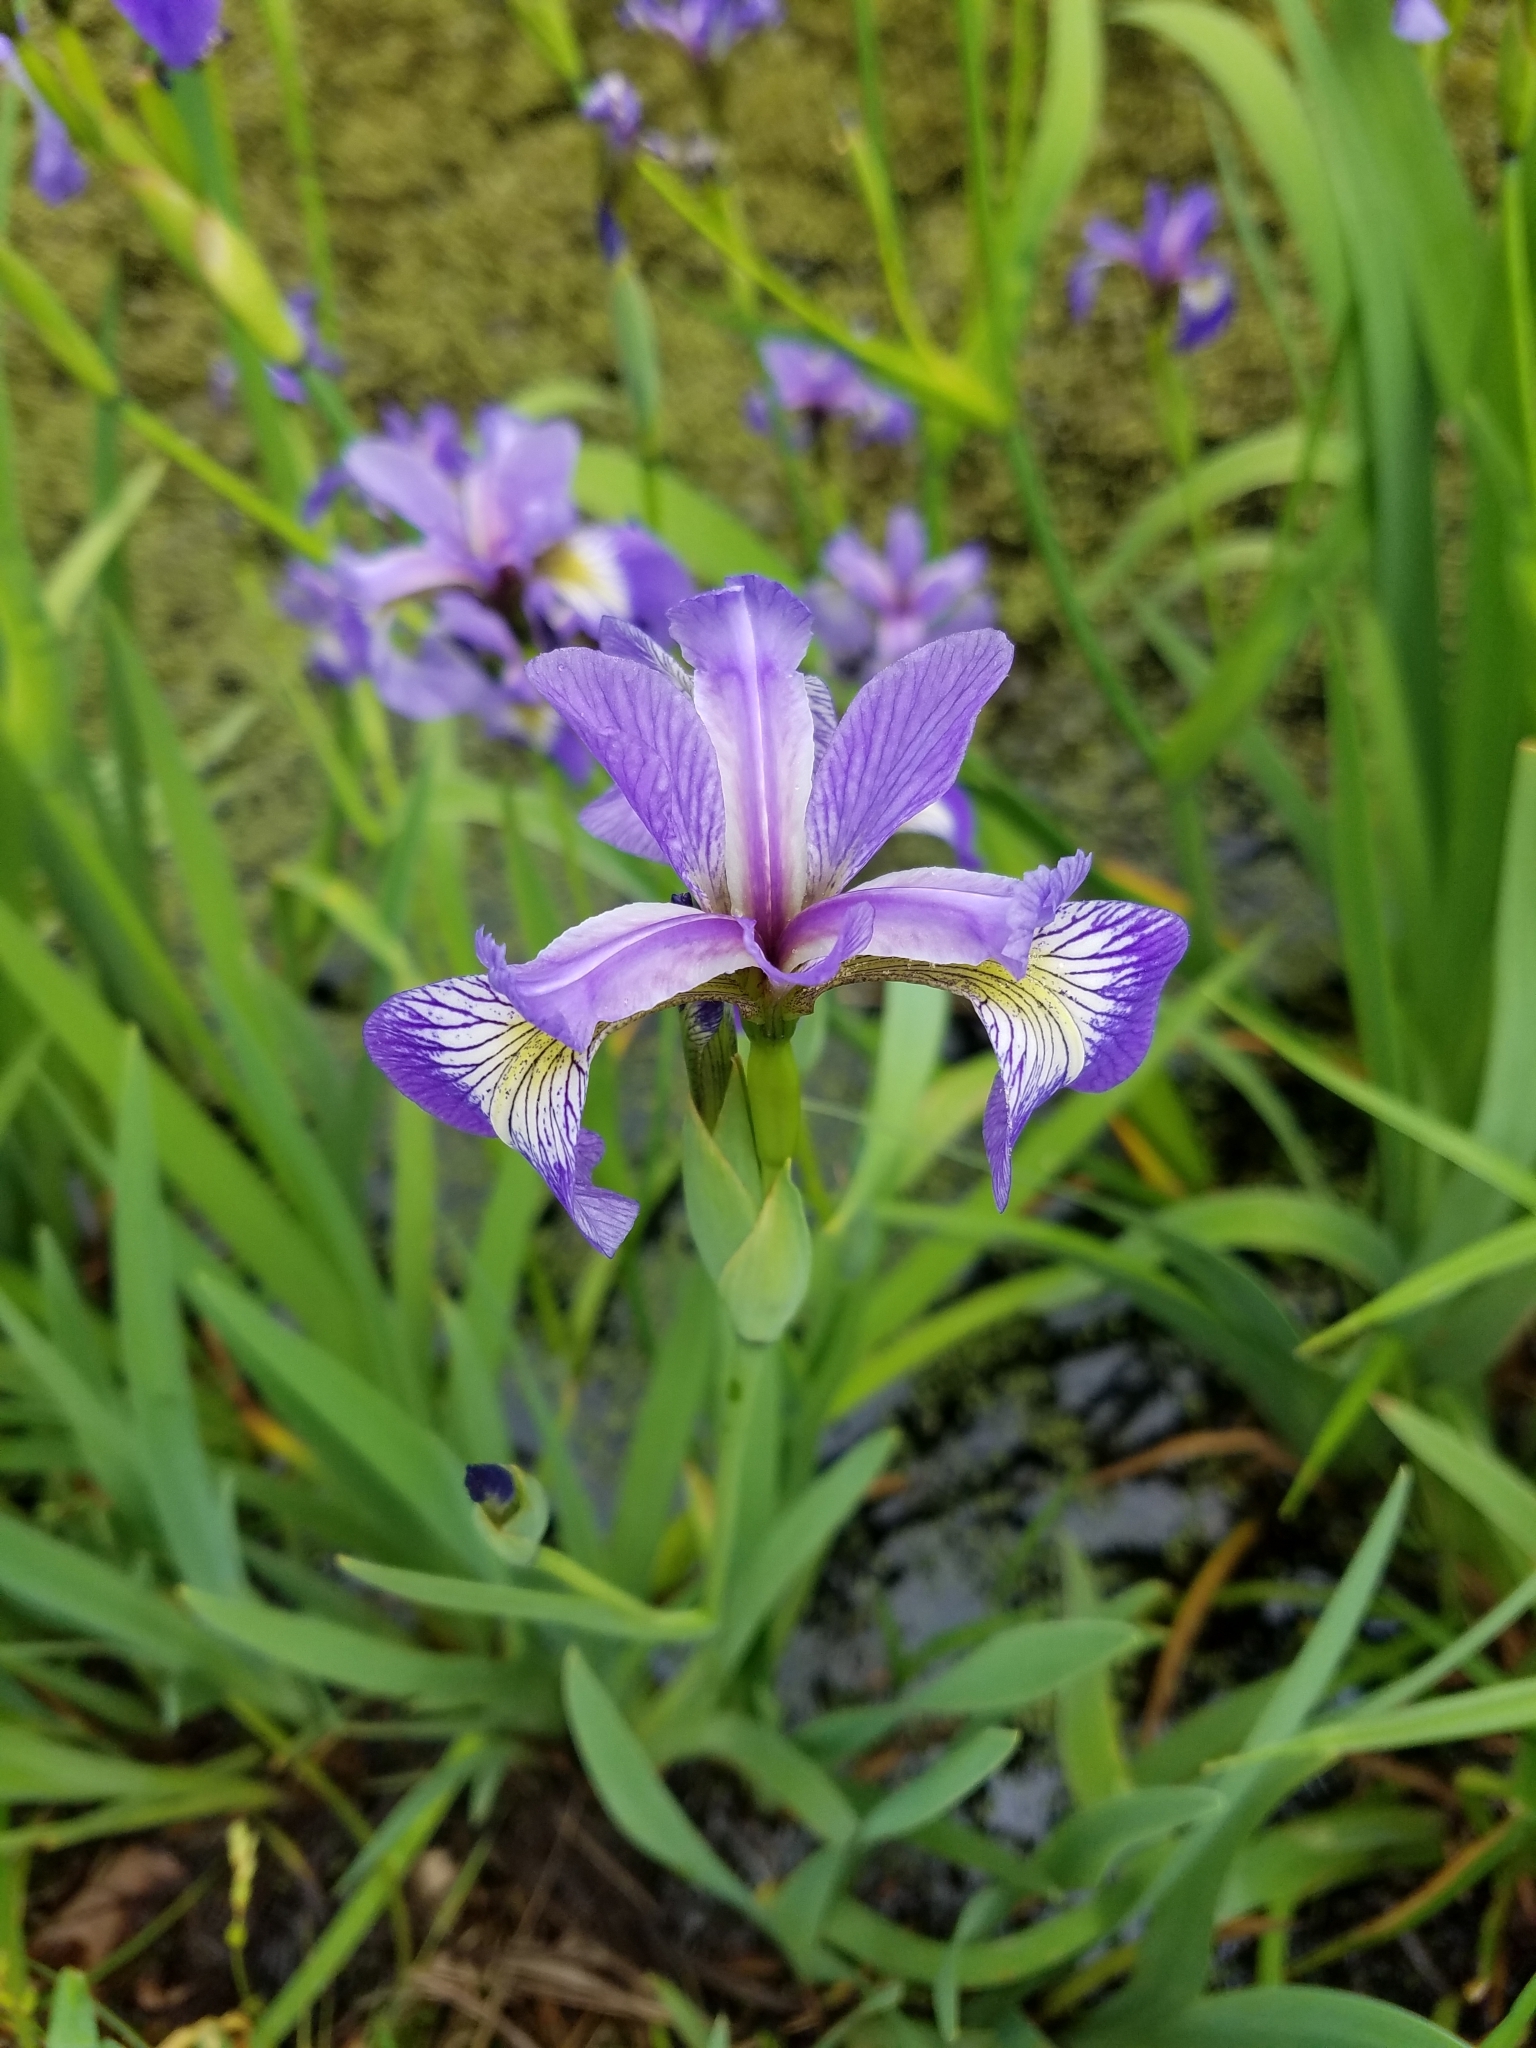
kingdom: Plantae
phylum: Tracheophyta
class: Liliopsida
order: Asparagales
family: Iridaceae
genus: Iris
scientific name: Iris versicolor
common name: Purple iris
